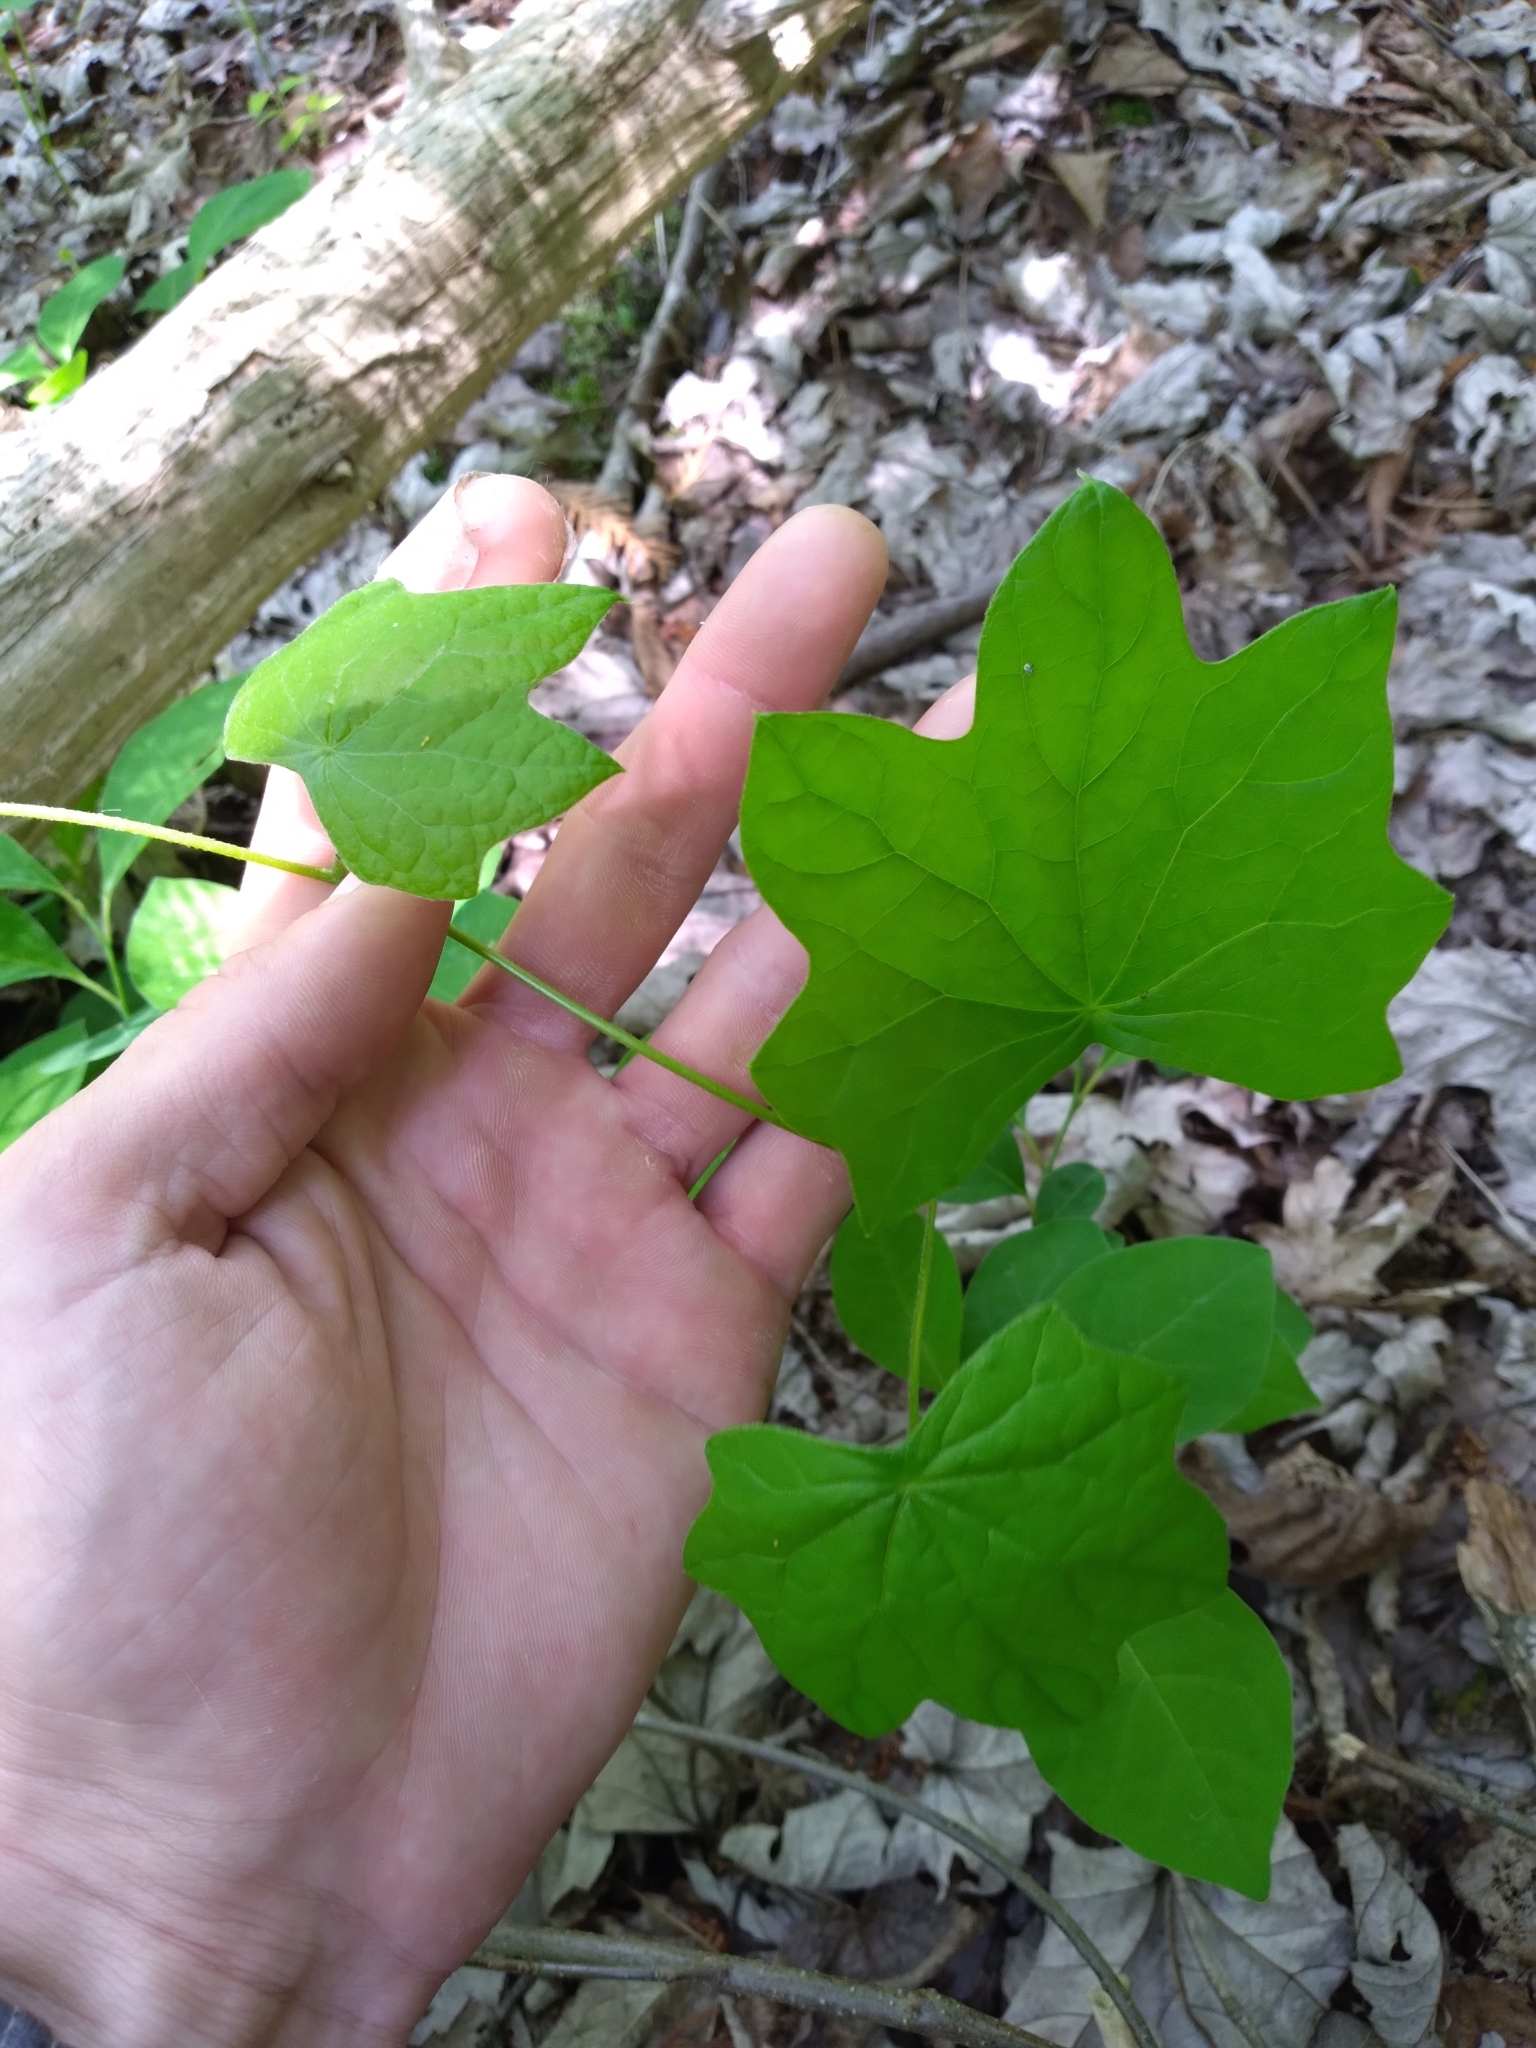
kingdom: Plantae
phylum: Tracheophyta
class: Magnoliopsida
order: Ranunculales
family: Menispermaceae
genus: Menispermum
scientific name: Menispermum canadense
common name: Moonseed
